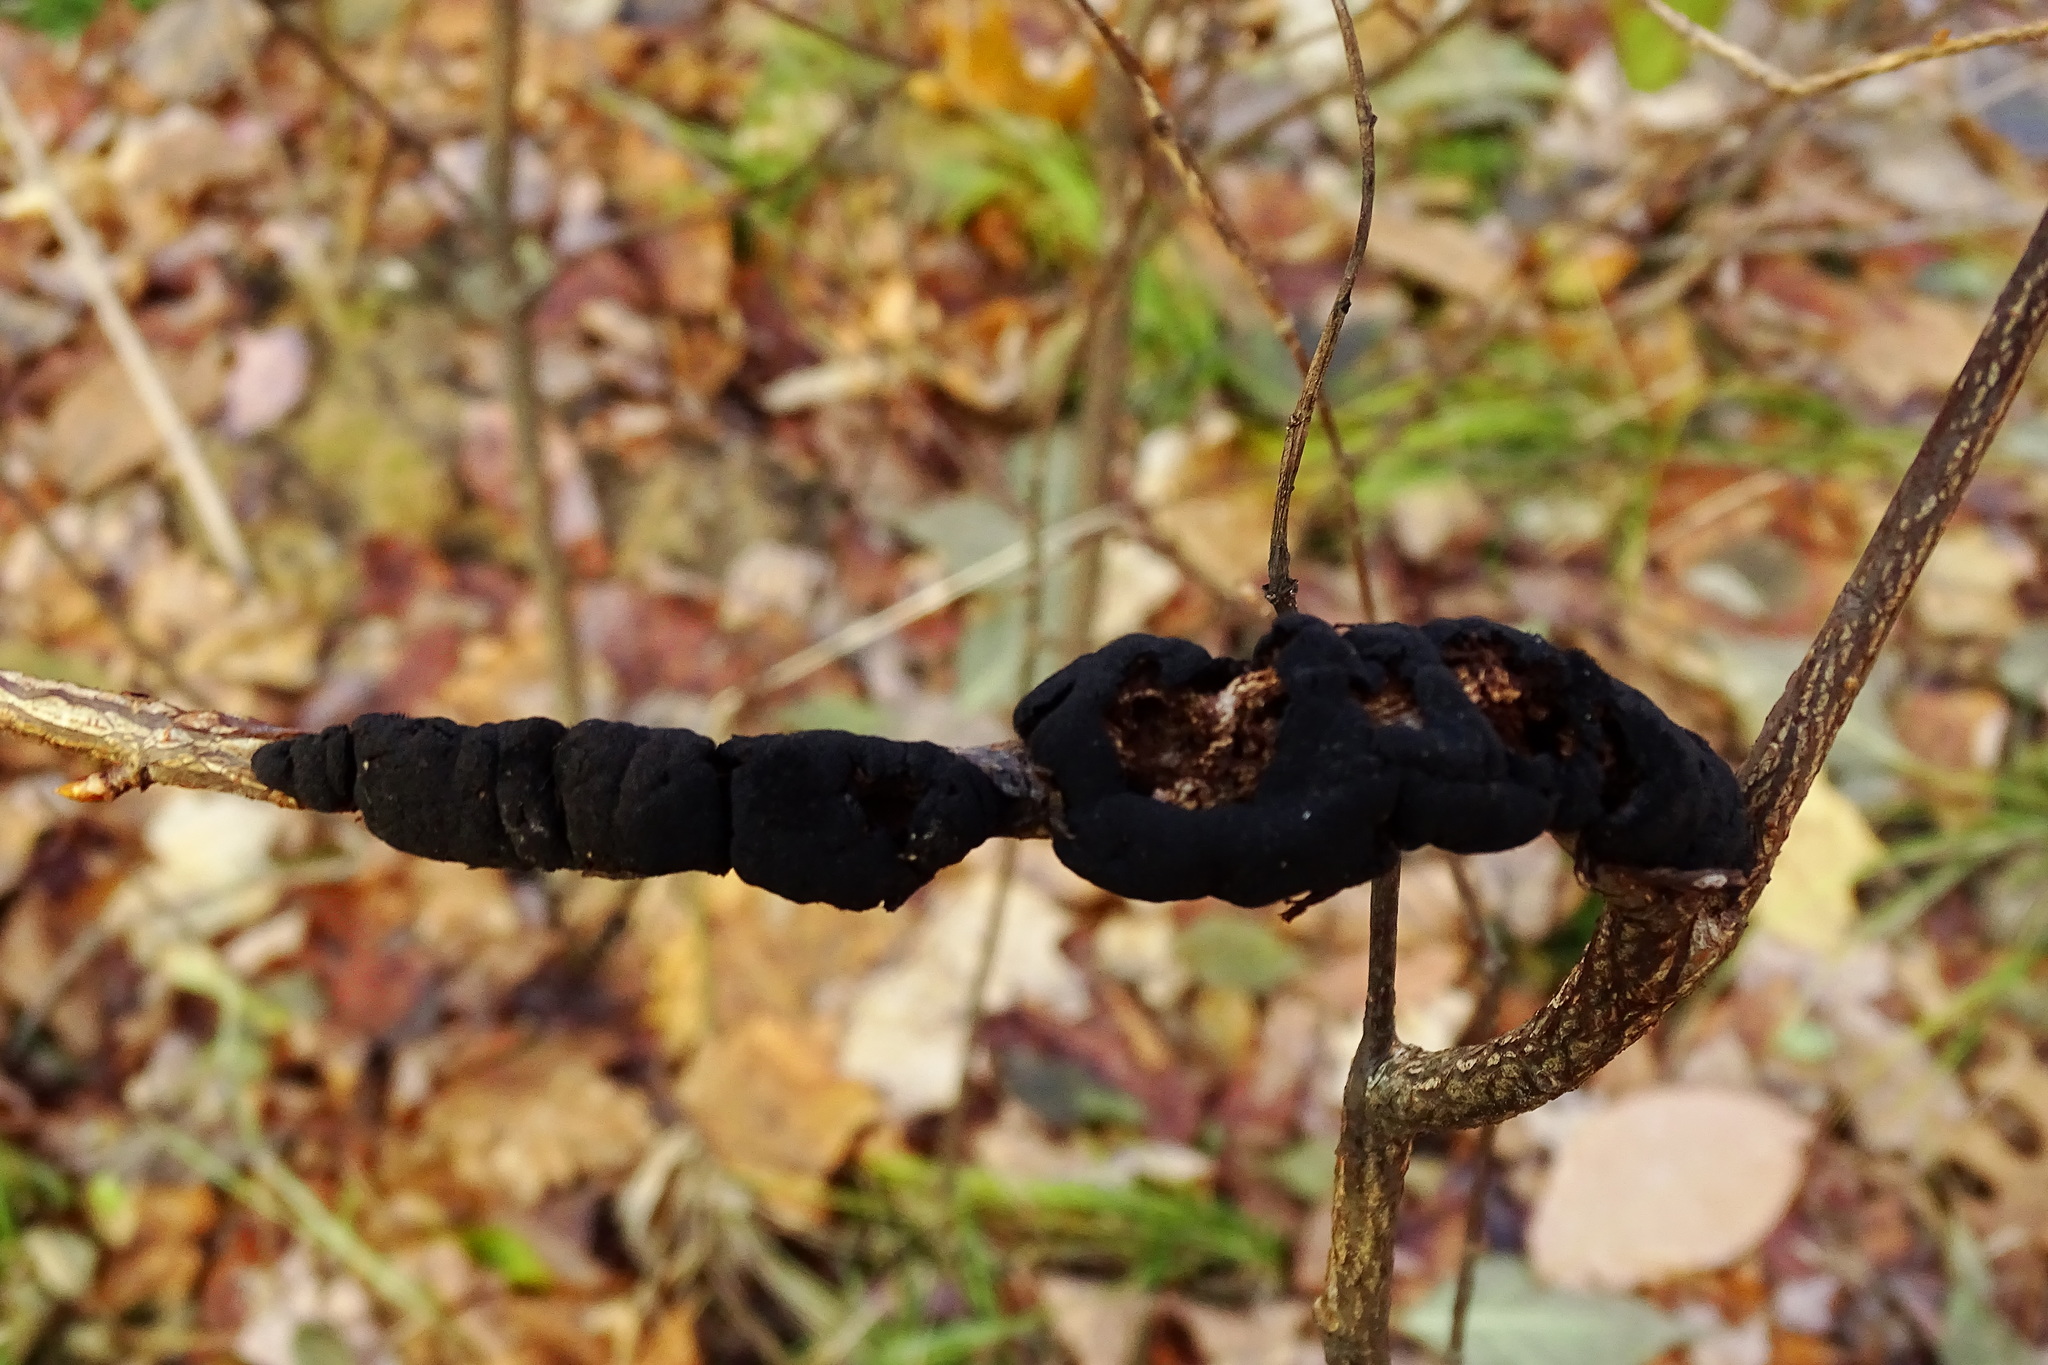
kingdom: Fungi
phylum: Ascomycota
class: Dothideomycetes
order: Venturiales
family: Venturiaceae
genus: Apiosporina
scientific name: Apiosporina morbosa
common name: Black knot
